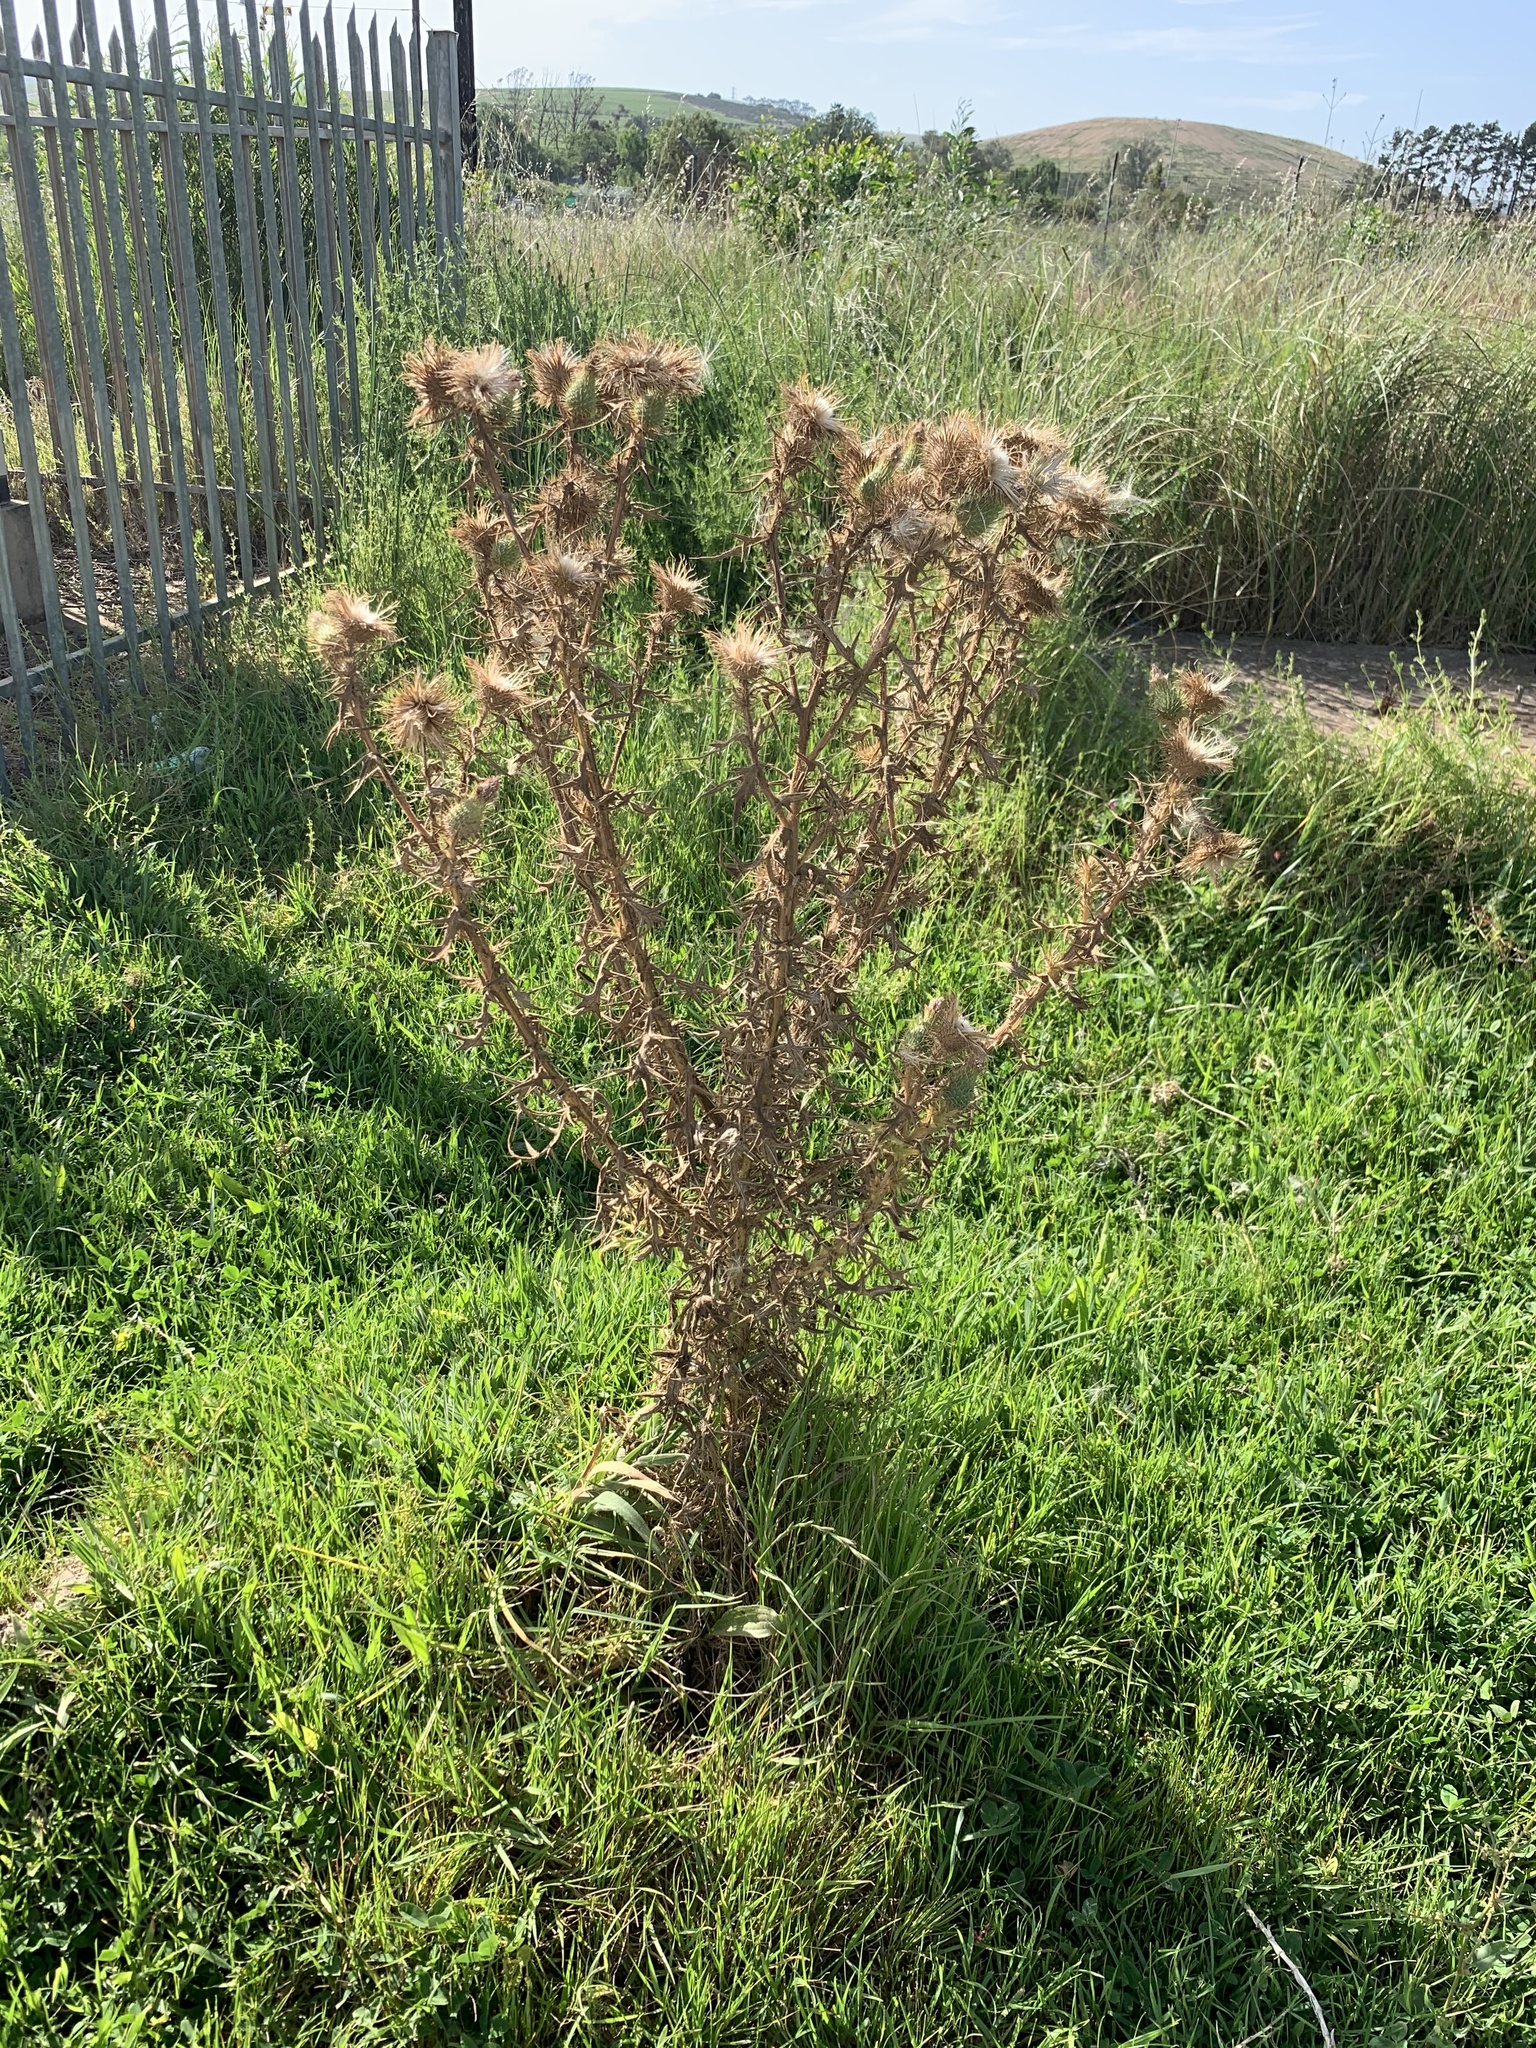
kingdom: Plantae
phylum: Tracheophyta
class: Magnoliopsida
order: Asterales
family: Asteraceae
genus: Cirsium
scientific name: Cirsium vulgare
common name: Bull thistle
